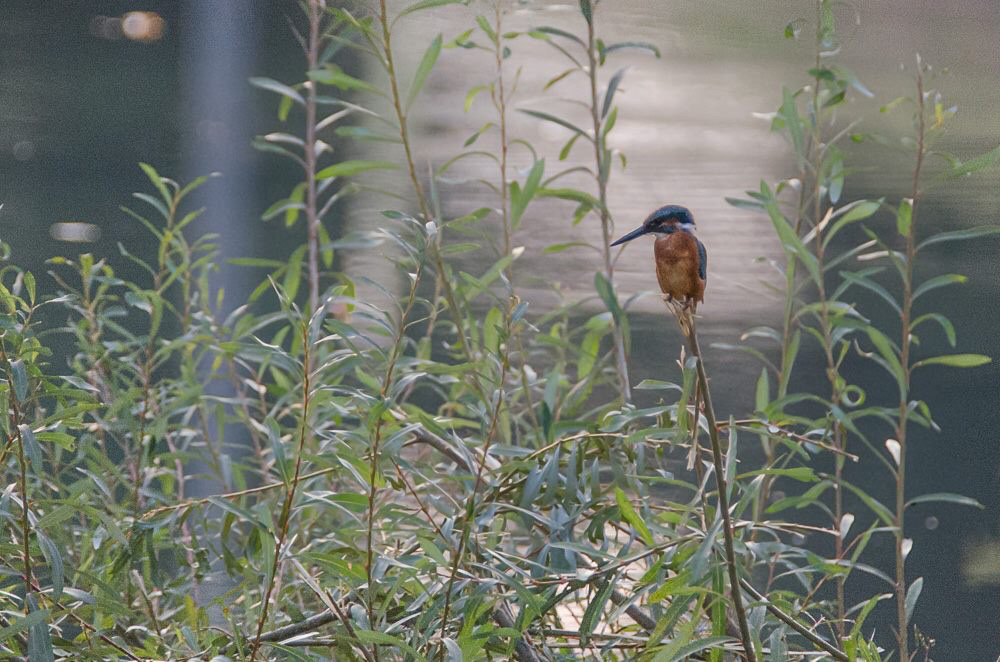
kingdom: Animalia
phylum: Chordata
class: Aves
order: Coraciiformes
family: Alcedinidae
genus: Alcedo
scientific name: Alcedo atthis
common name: Common kingfisher
